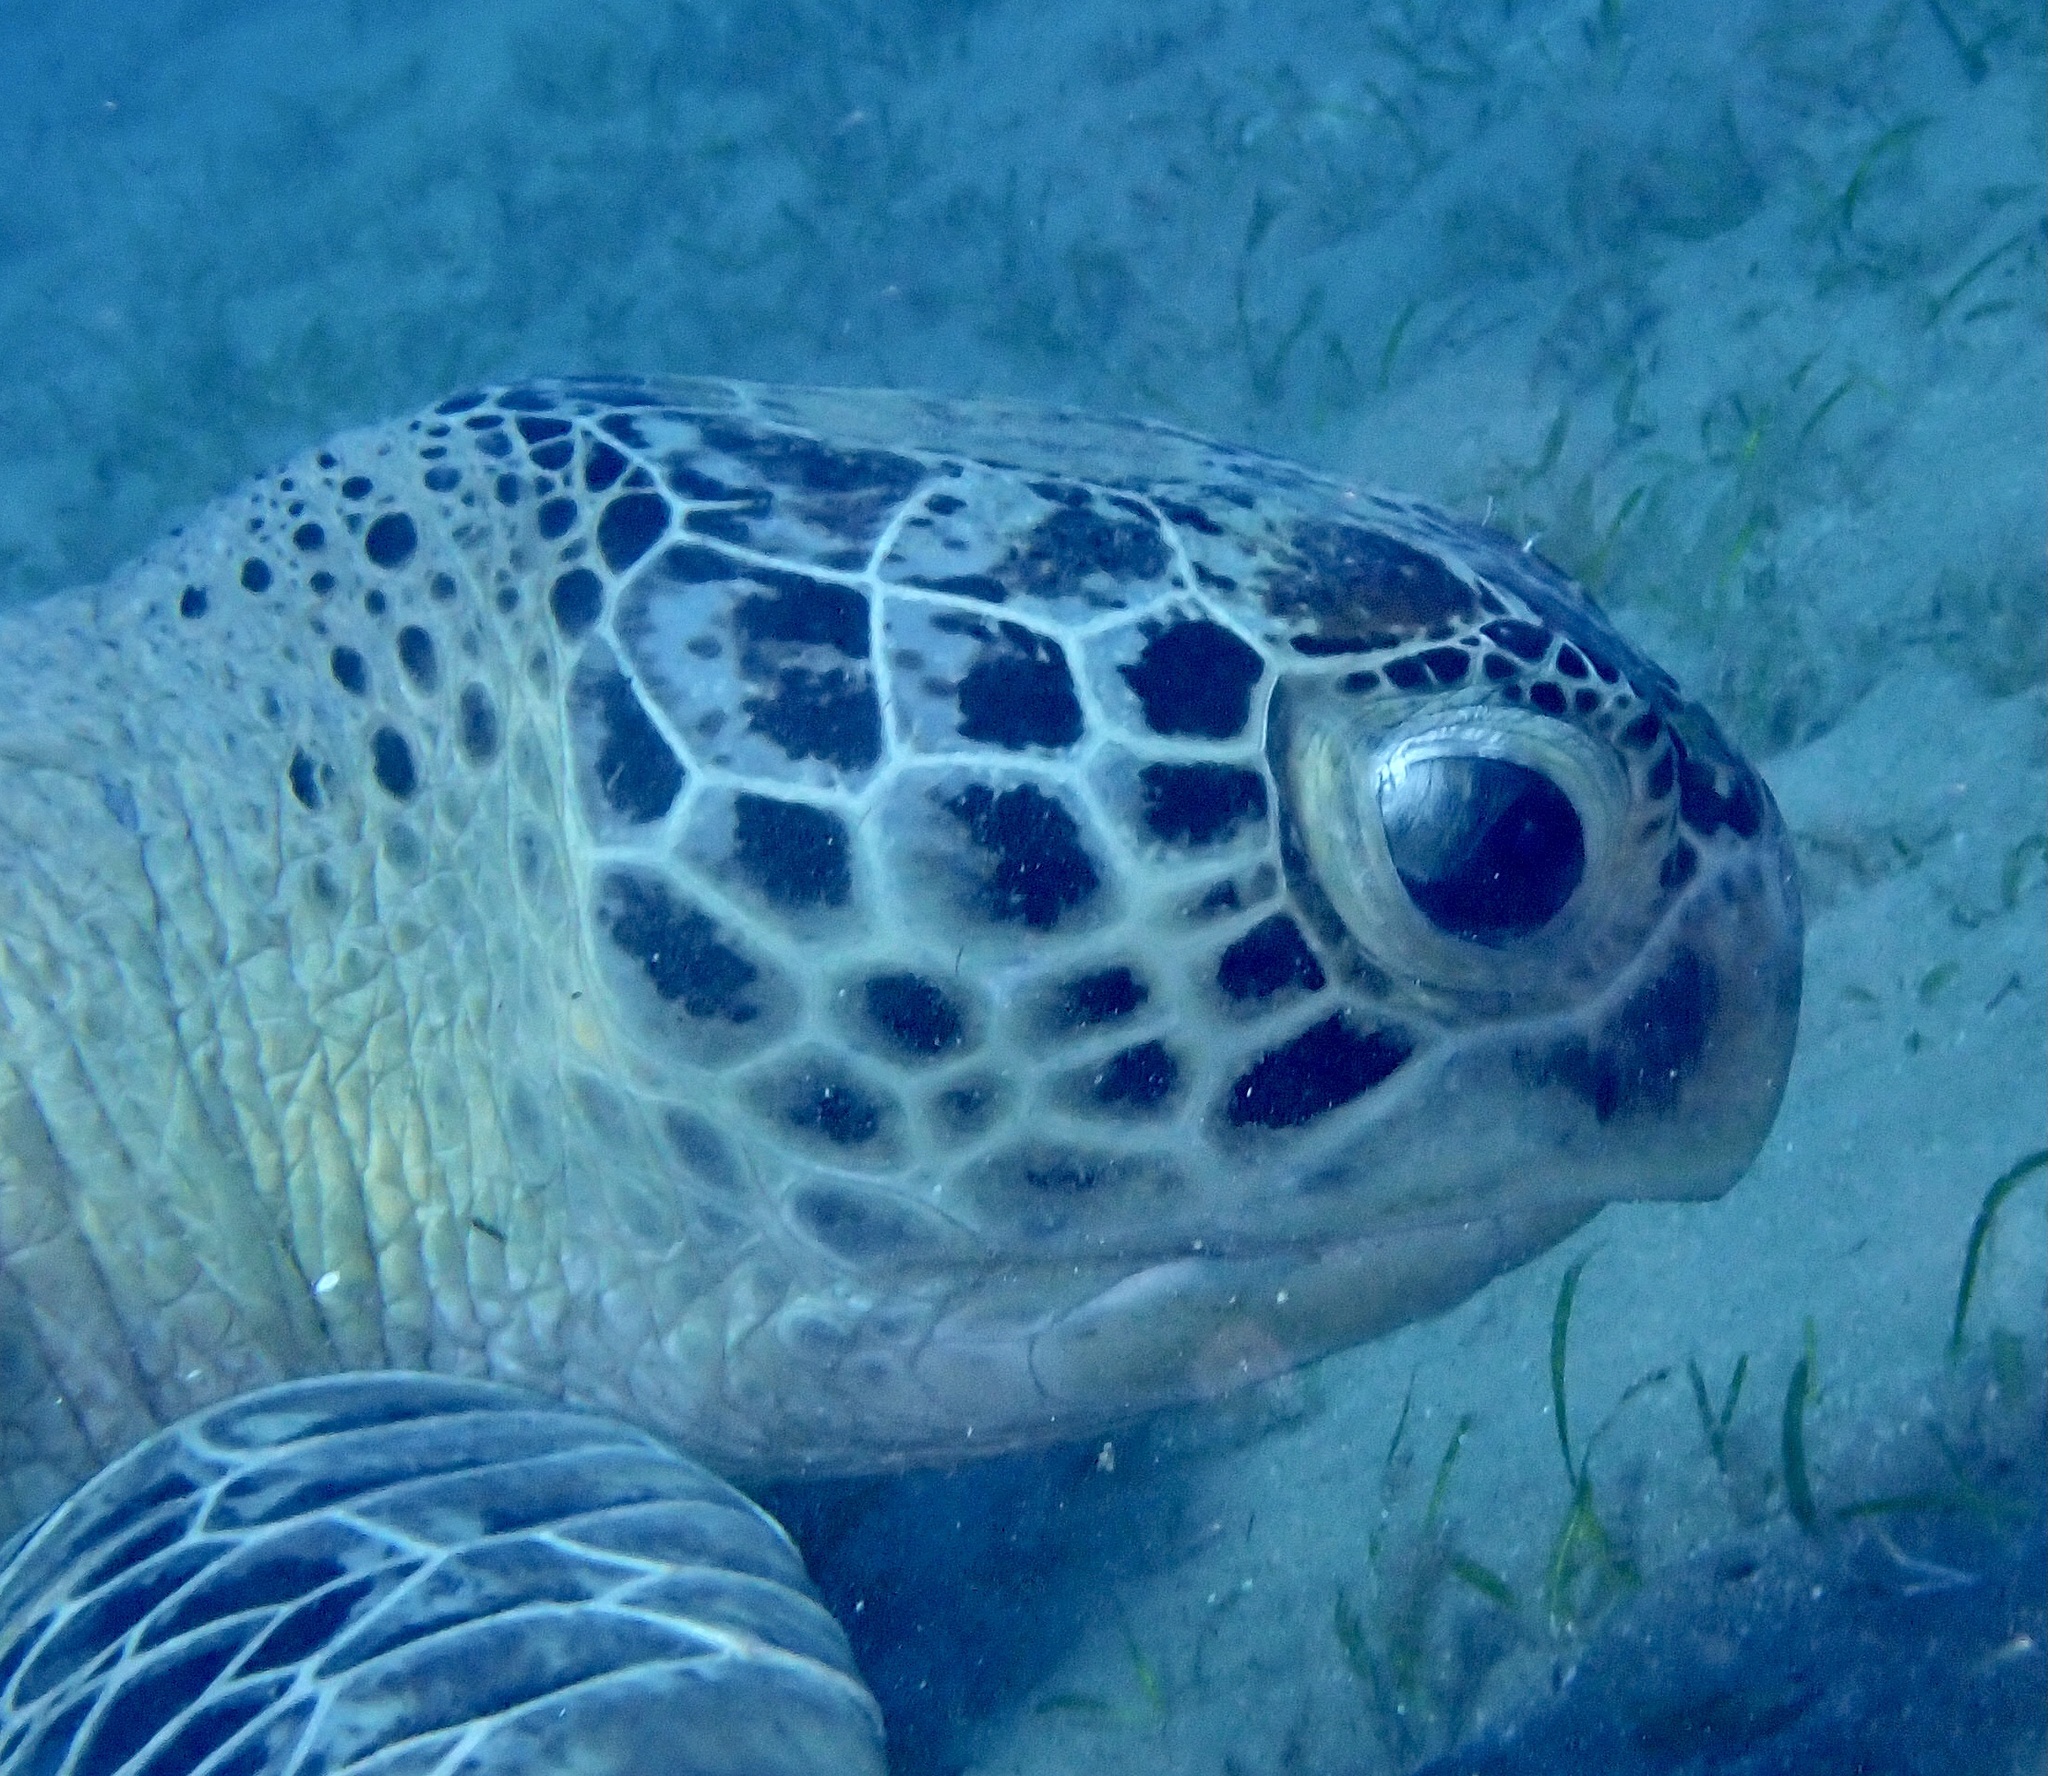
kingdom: Animalia
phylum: Chordata
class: Testudines
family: Cheloniidae
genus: Chelonia
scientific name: Chelonia mydas
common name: Green turtle
